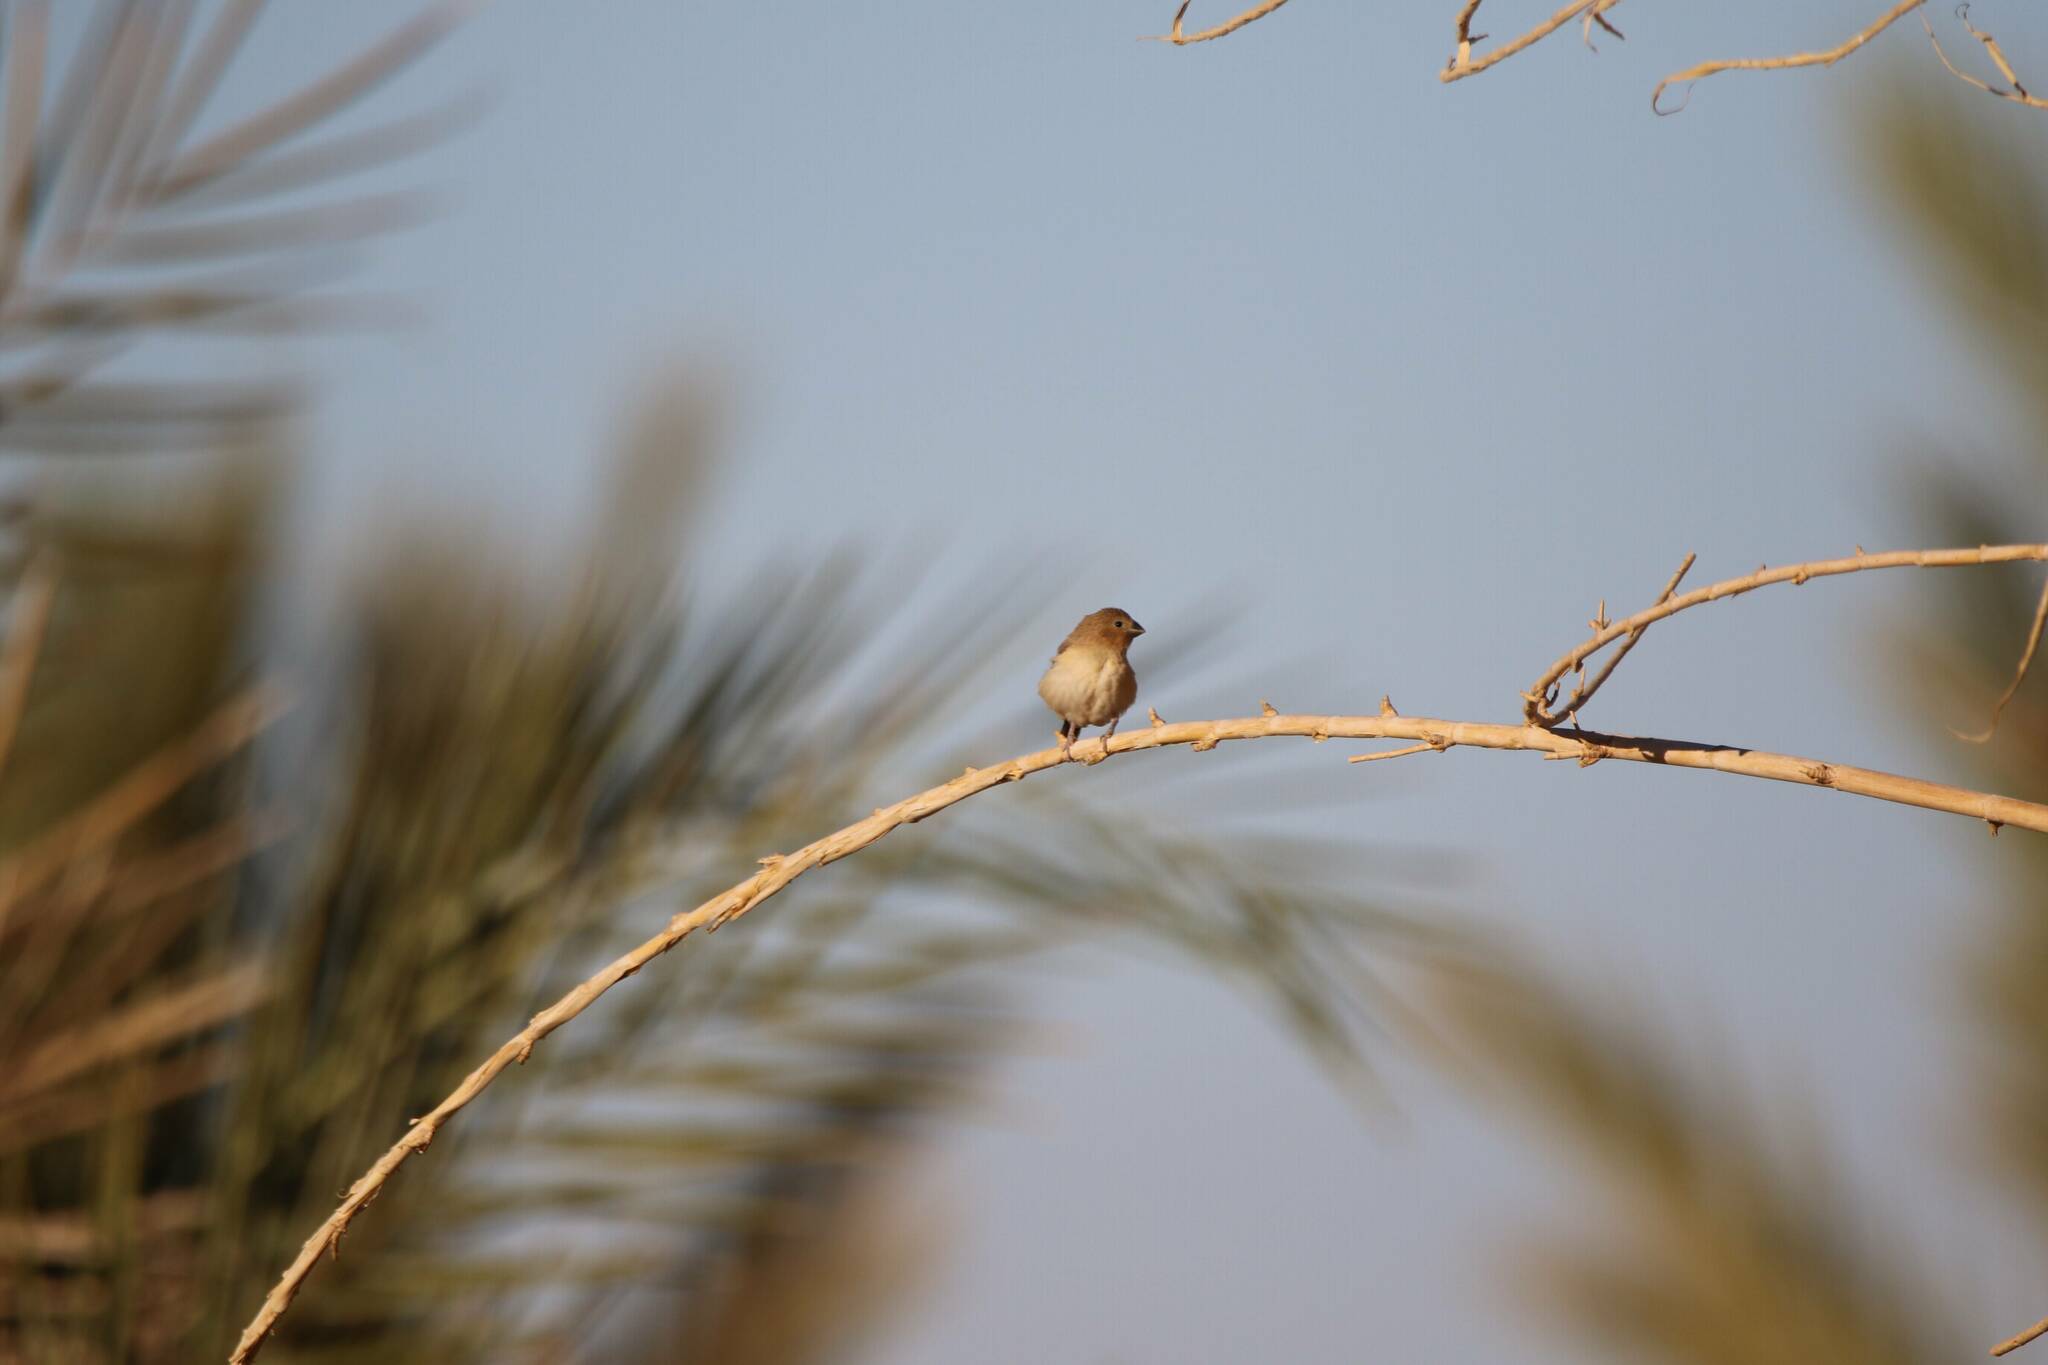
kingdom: Animalia
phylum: Chordata
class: Aves
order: Passeriformes
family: Estrildidae
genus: Euodice
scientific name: Euodice cantans
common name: African silverbill
